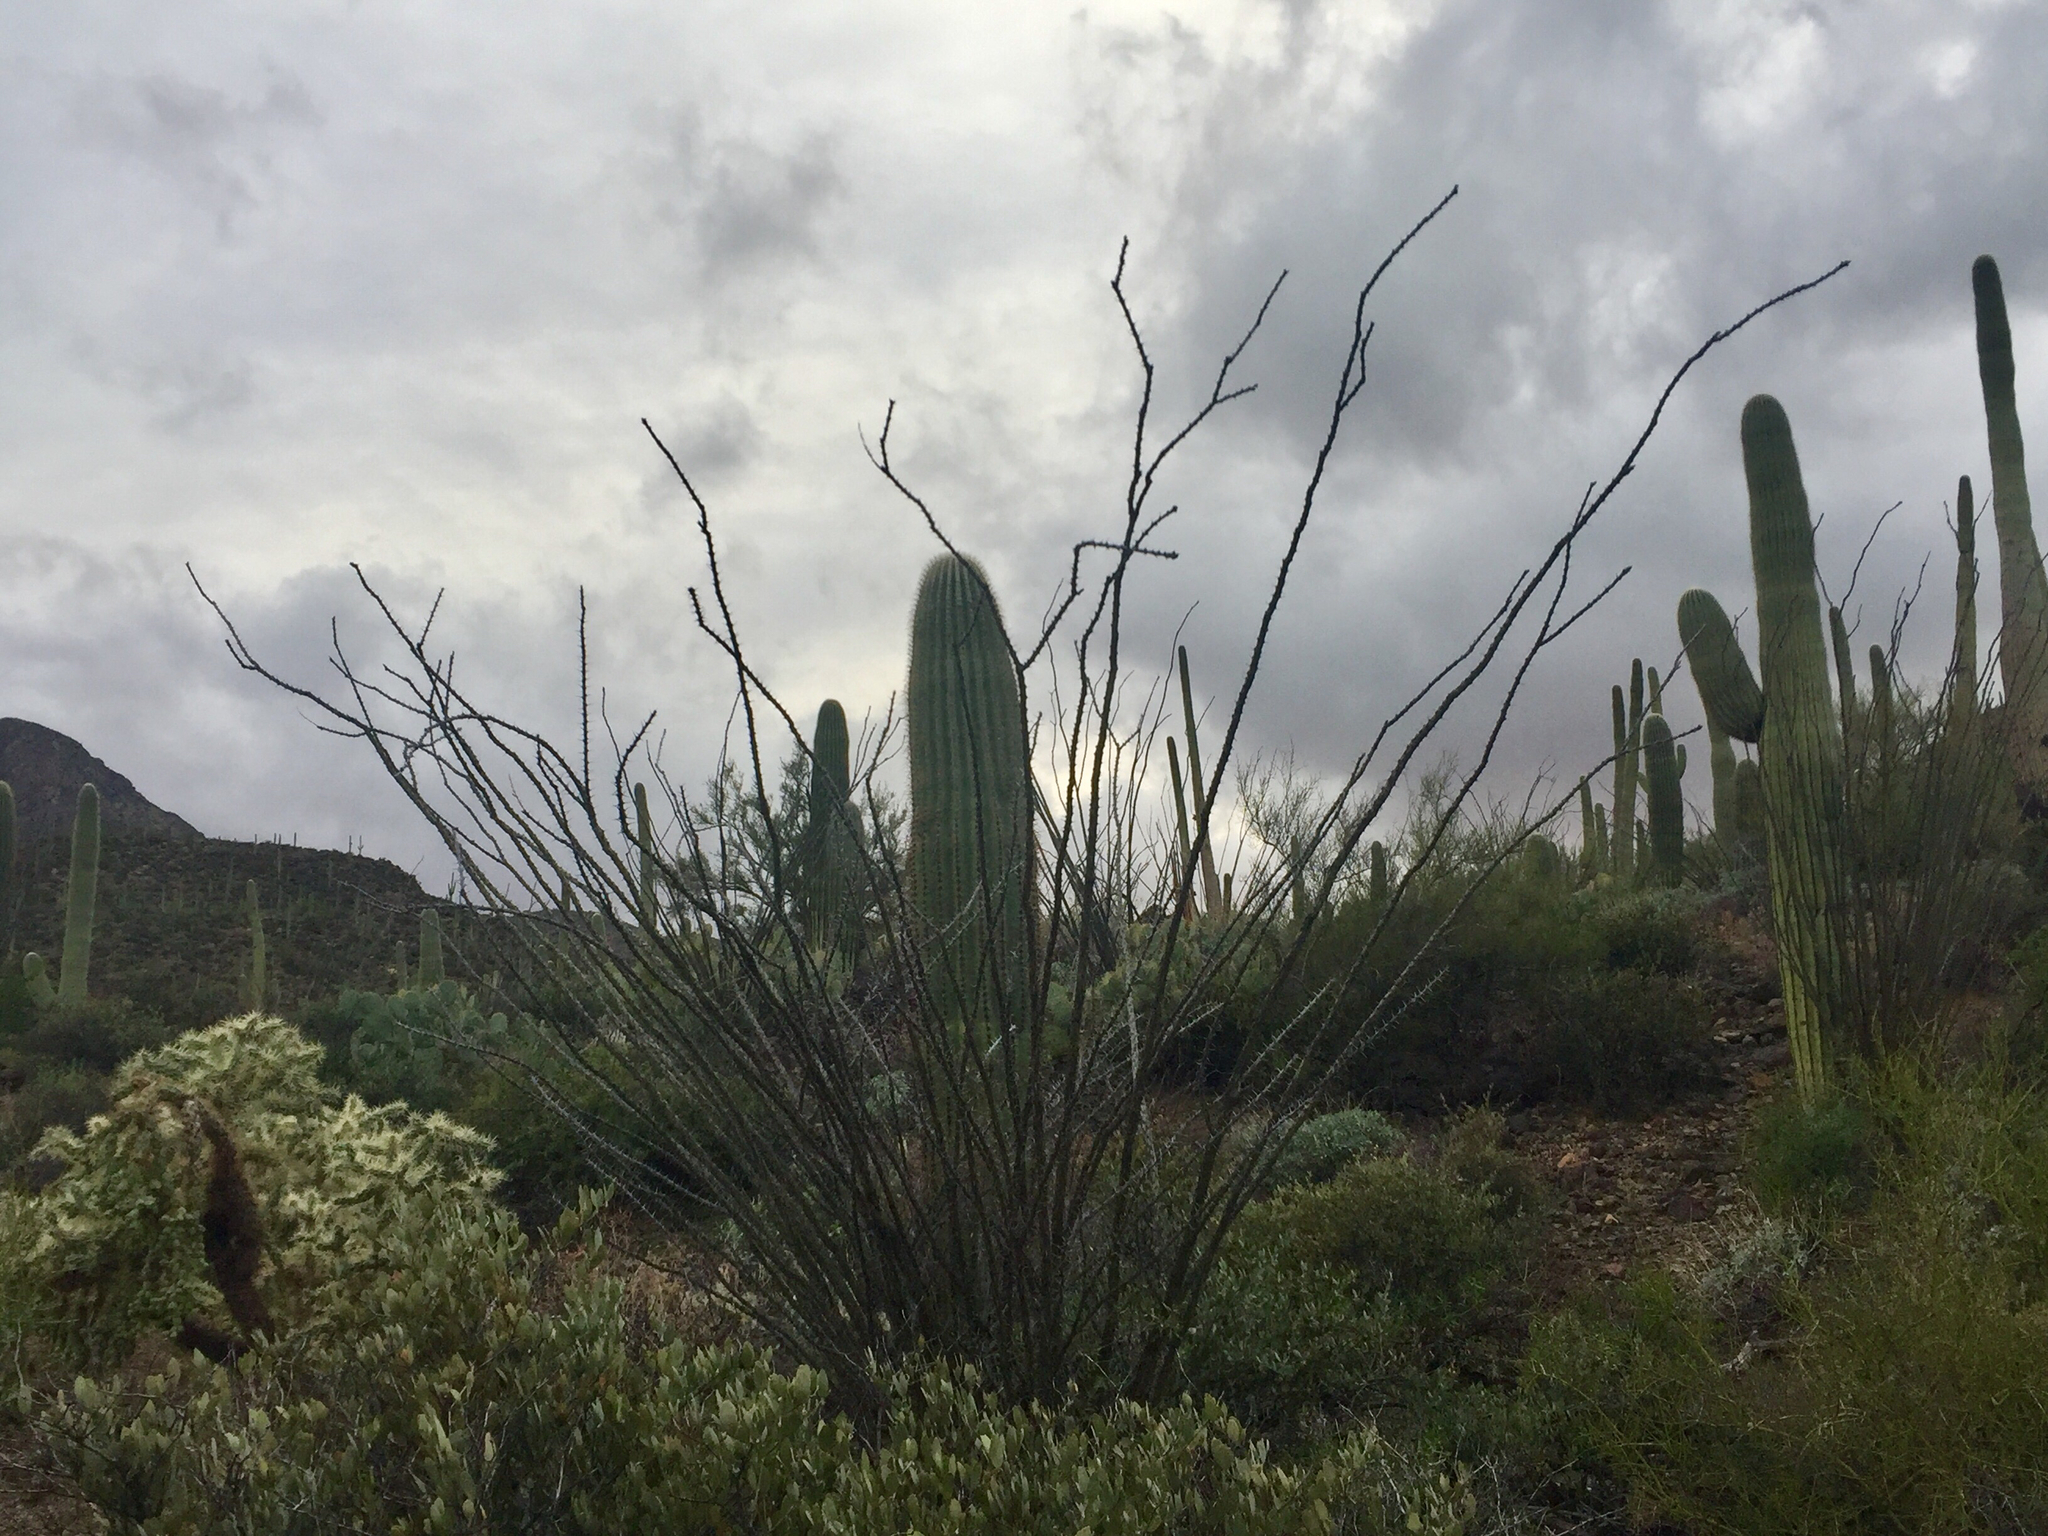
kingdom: Plantae
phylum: Tracheophyta
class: Magnoliopsida
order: Caryophyllales
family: Cactaceae
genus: Carnegiea
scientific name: Carnegiea gigantea
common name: Saguaro
